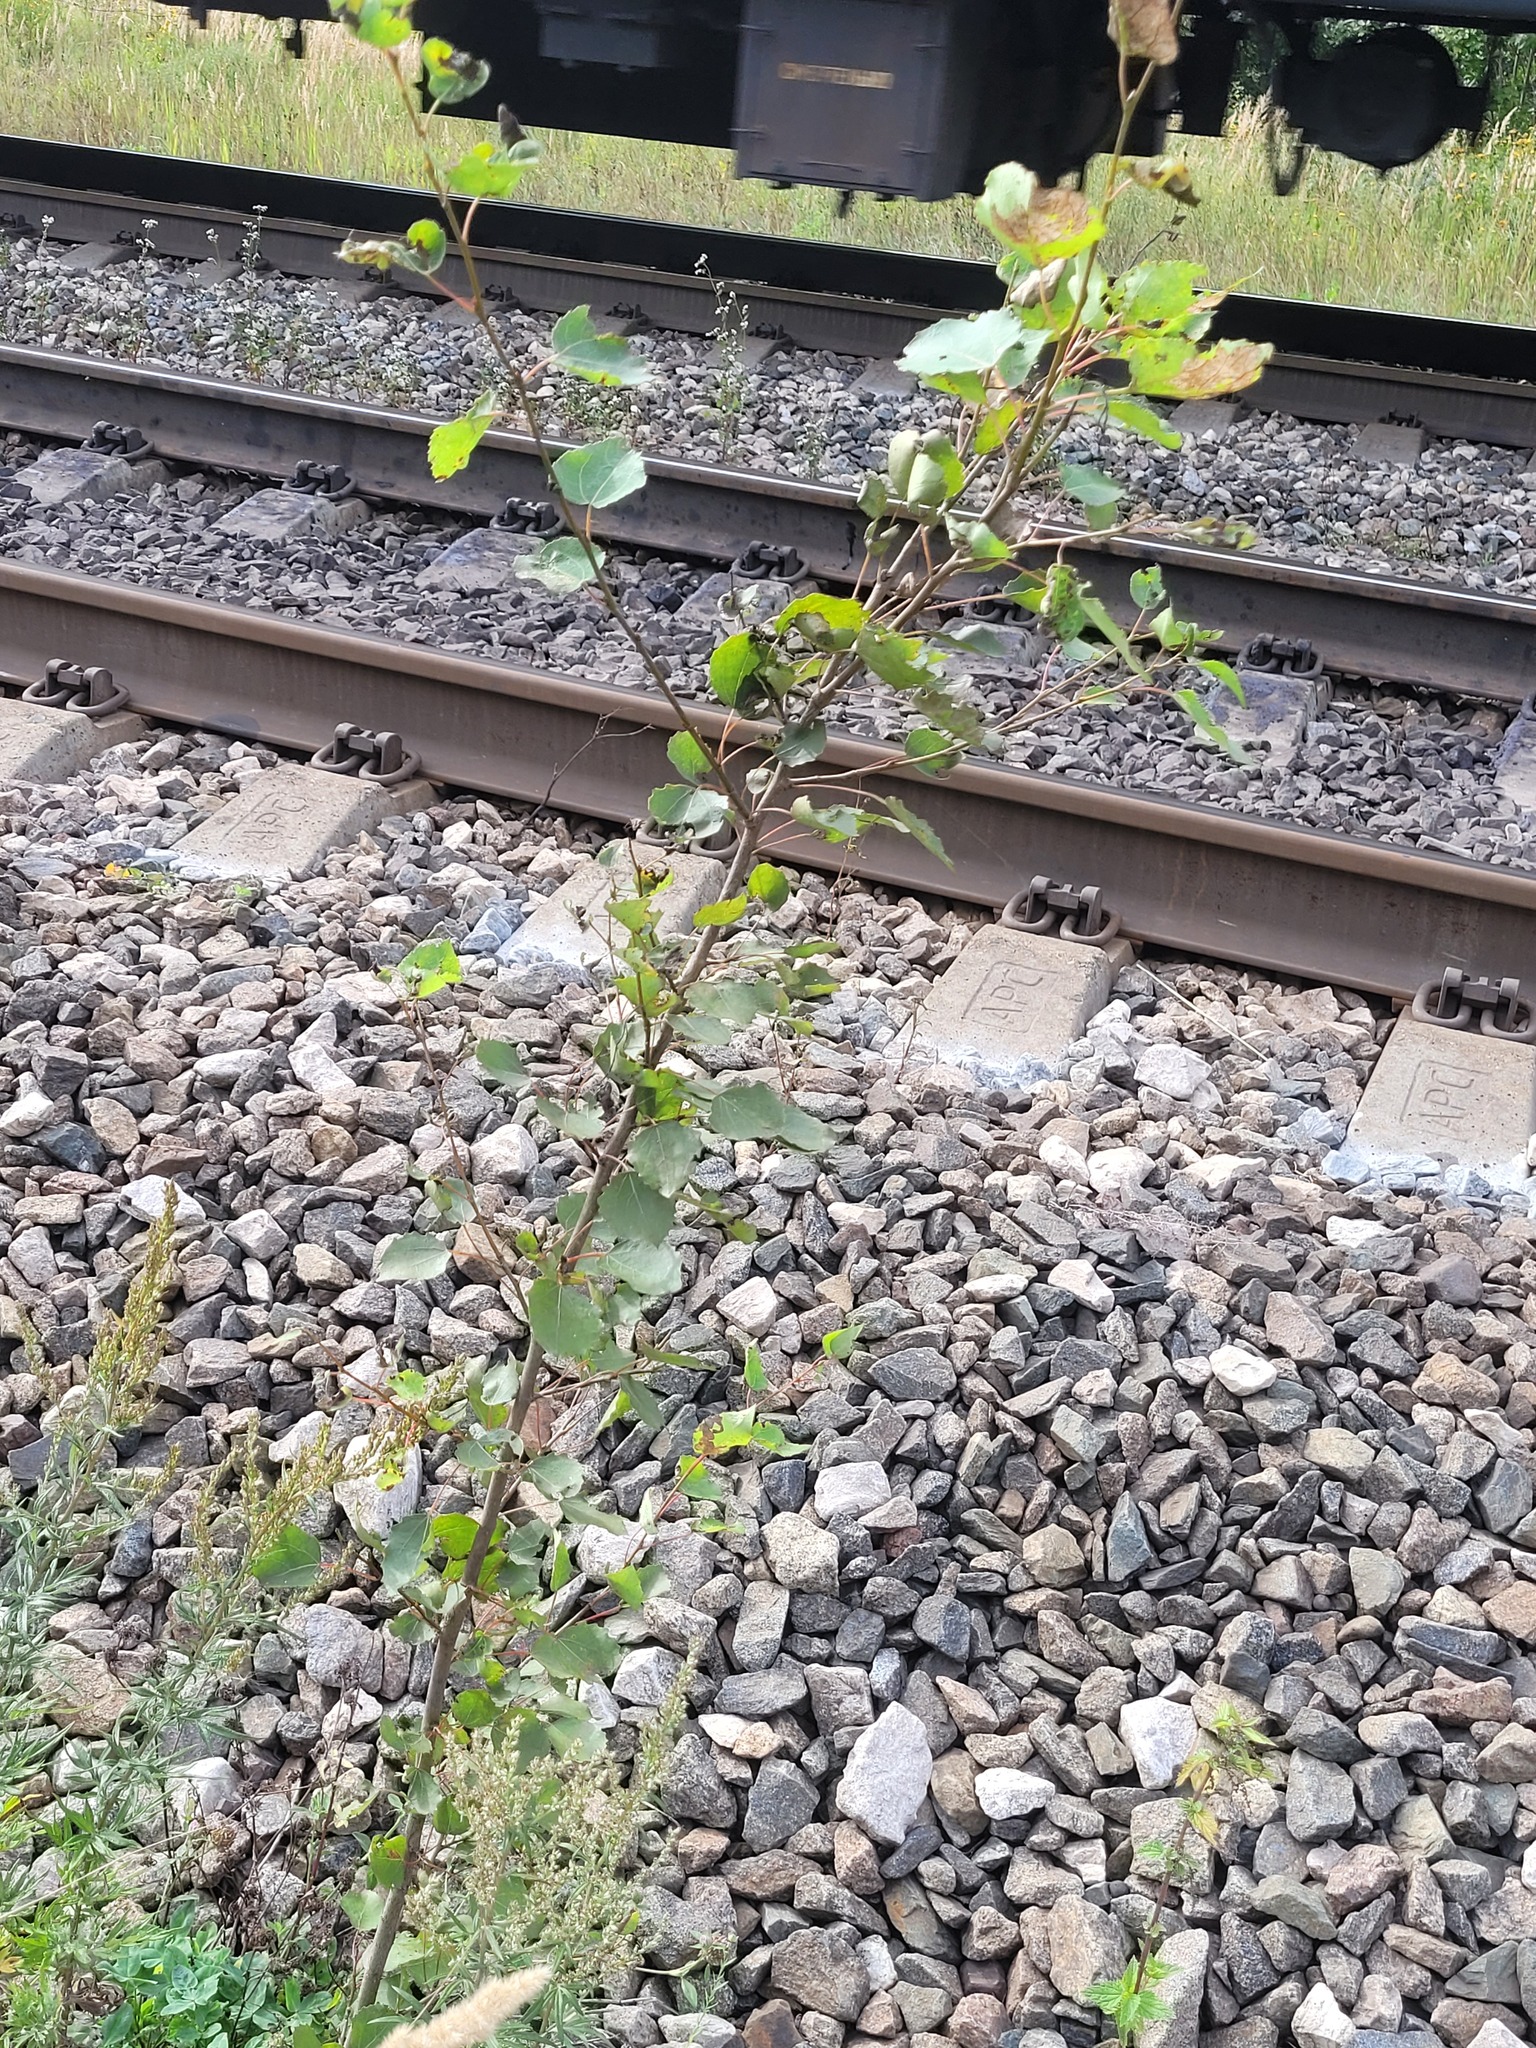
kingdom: Plantae
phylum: Tracheophyta
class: Magnoliopsida
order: Malpighiales
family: Salicaceae
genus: Populus
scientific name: Populus tremula
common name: European aspen
